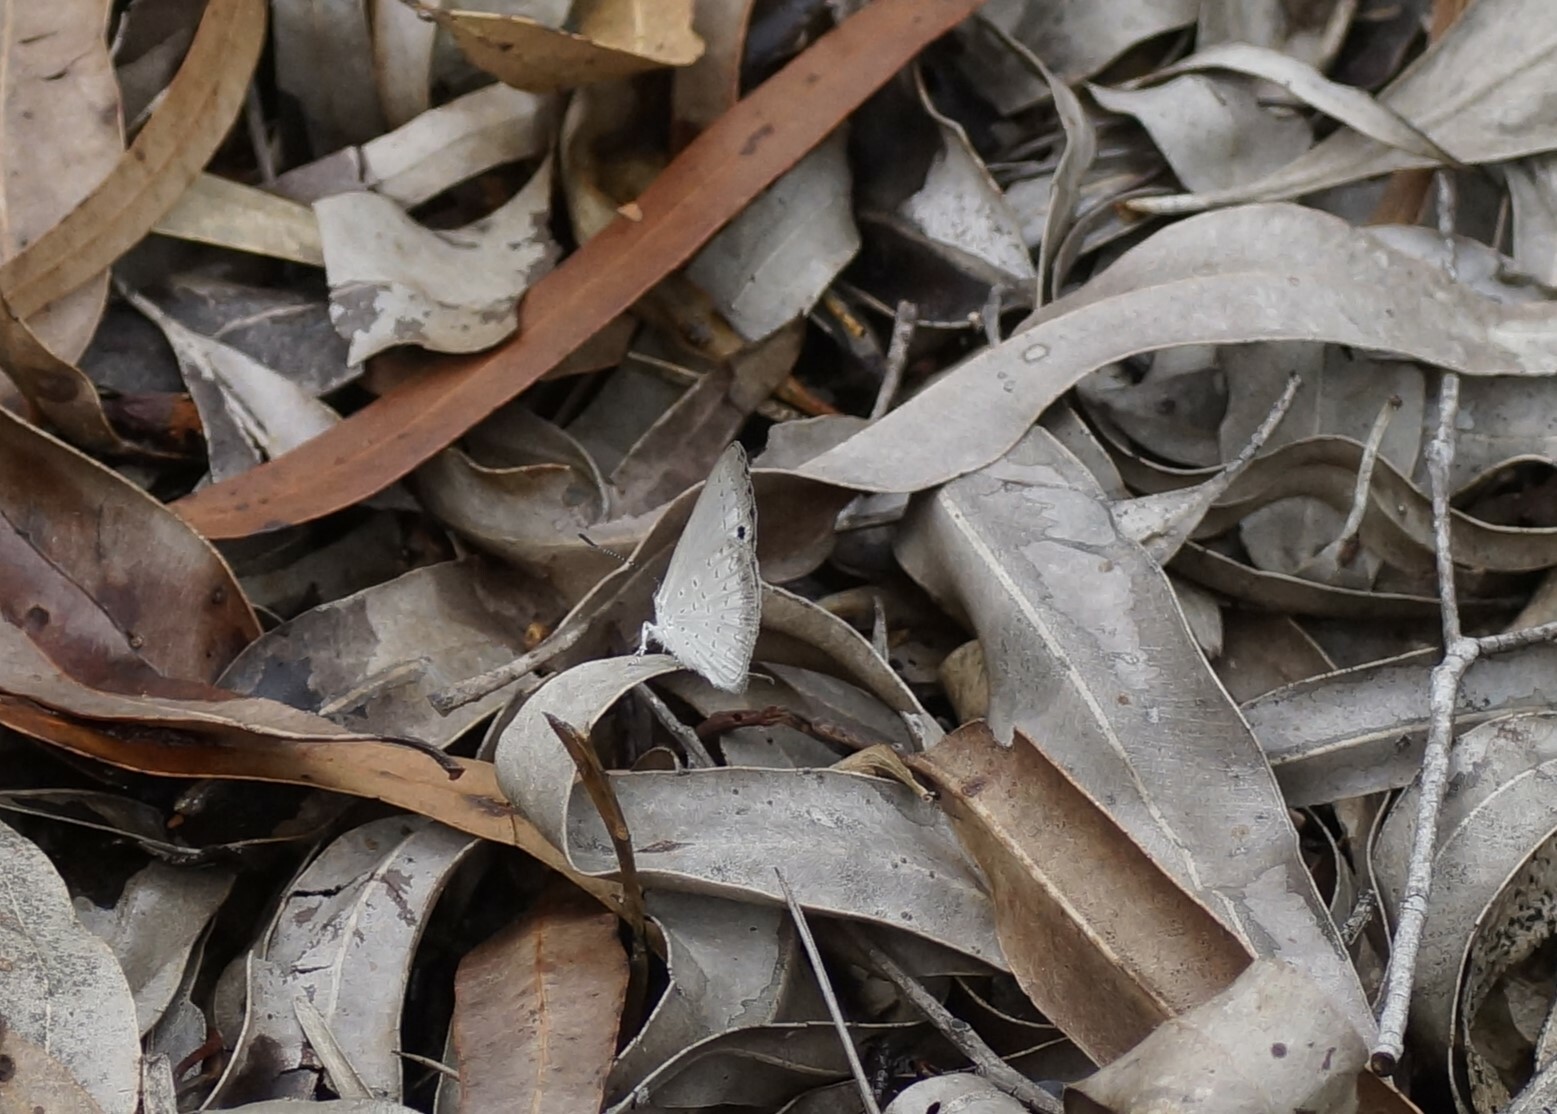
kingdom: Animalia
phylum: Arthropoda
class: Insecta
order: Lepidoptera
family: Lycaenidae
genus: Candalides
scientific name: Candalides
